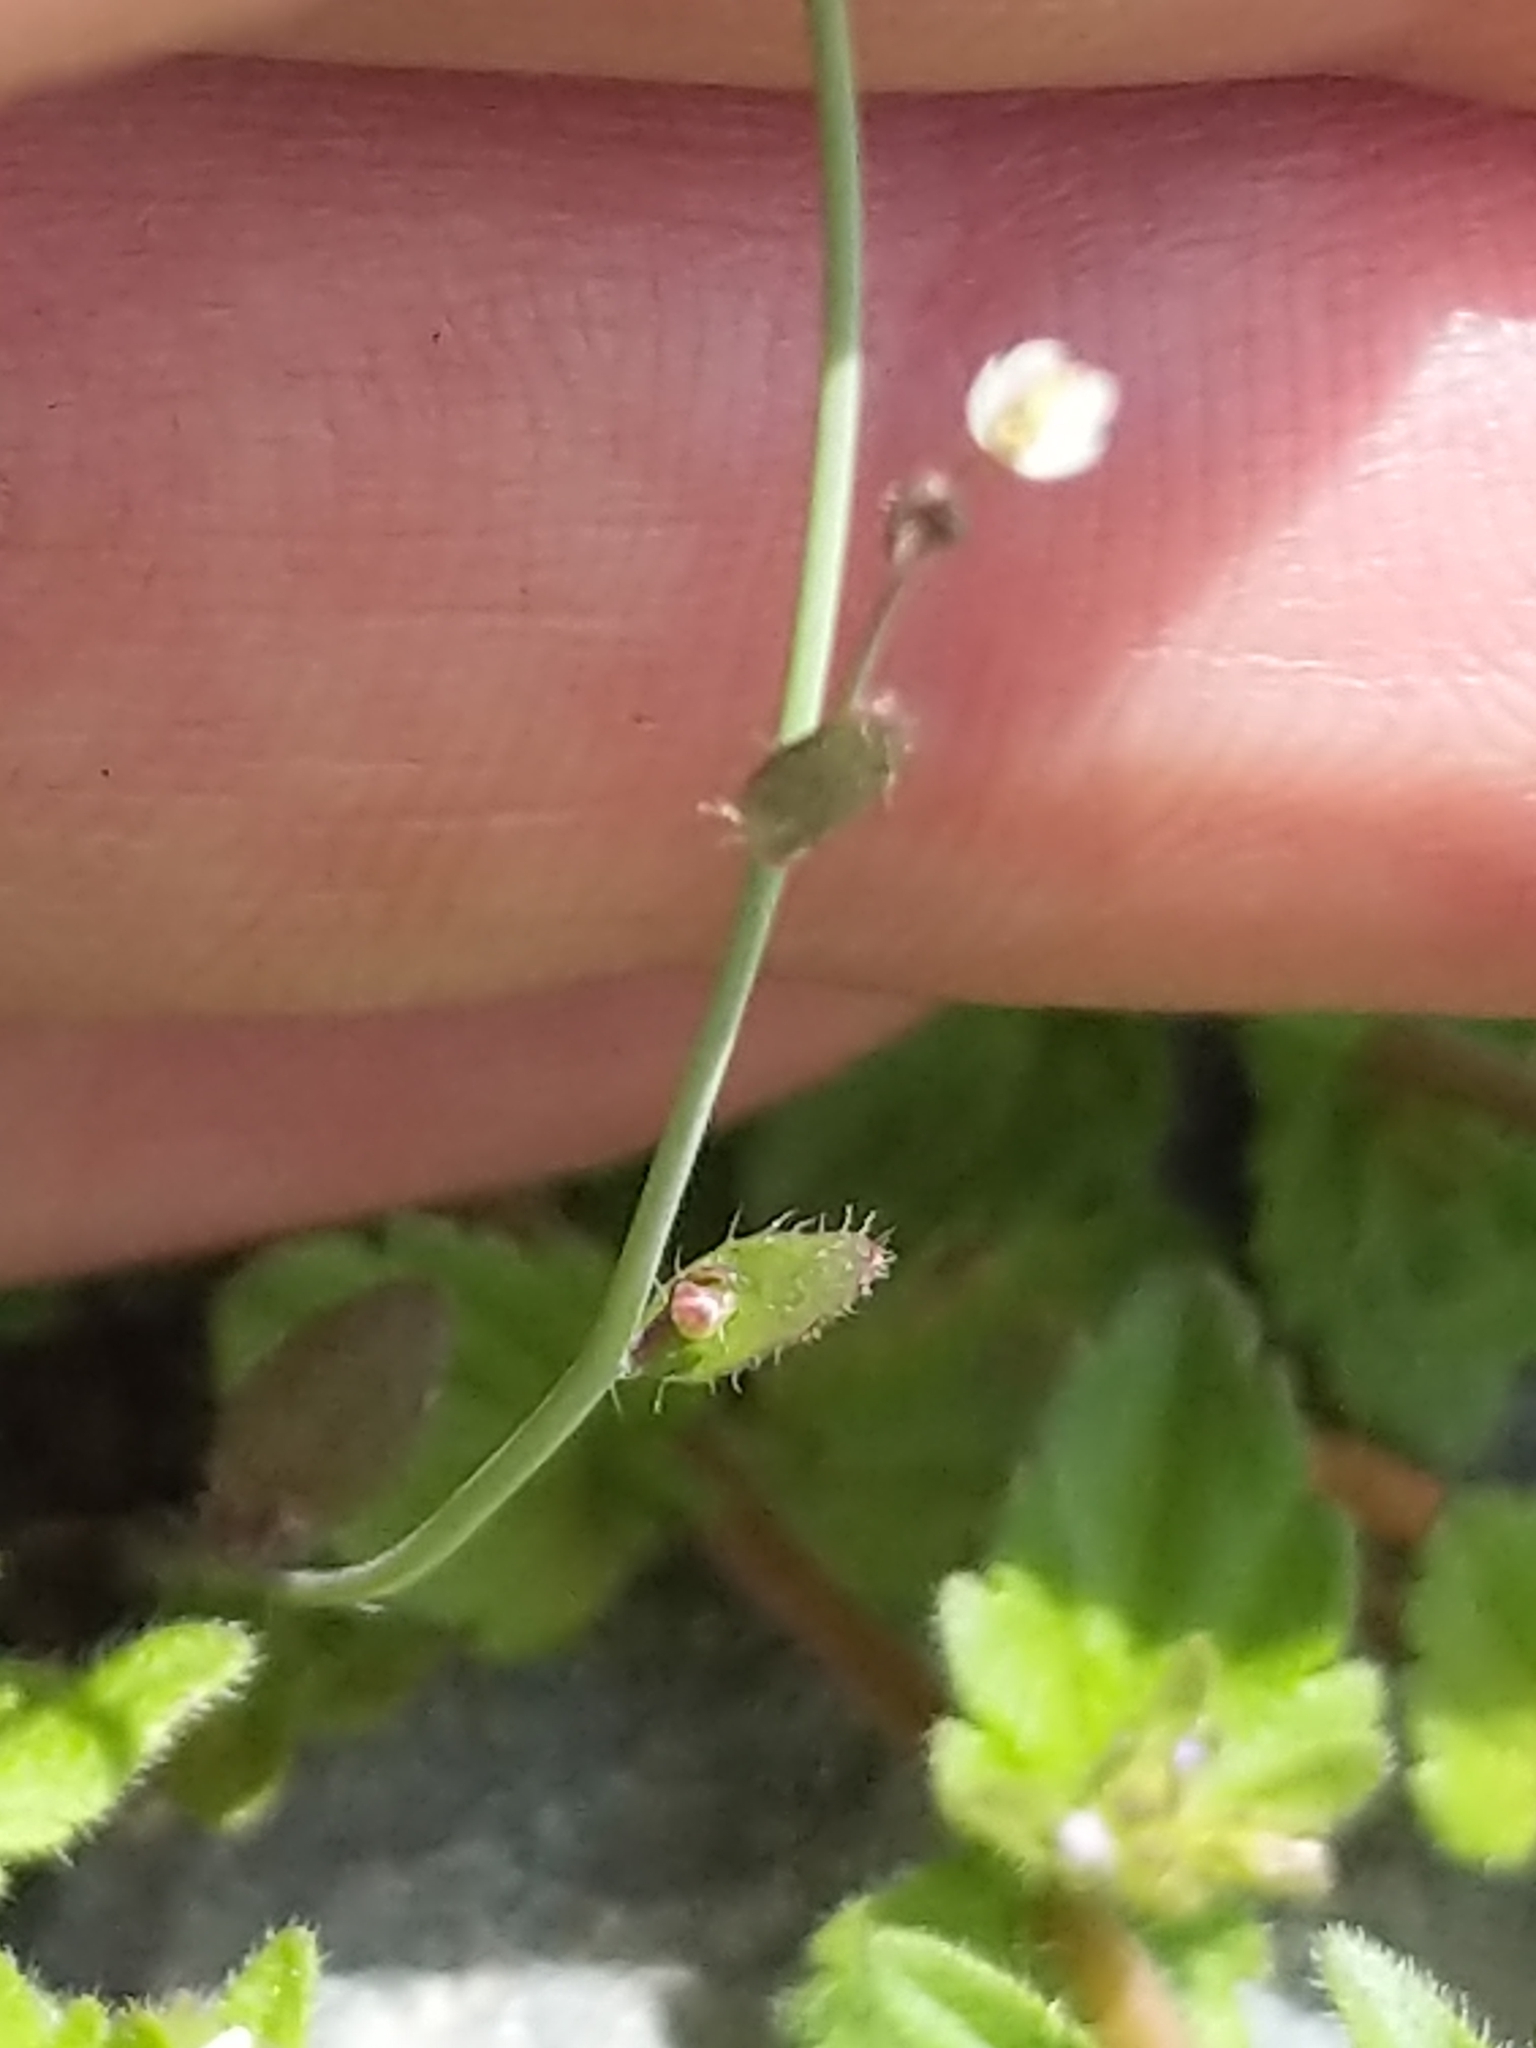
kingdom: Plantae
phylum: Tracheophyta
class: Magnoliopsida
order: Brassicales
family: Brassicaceae
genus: Arabidopsis
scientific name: Arabidopsis thaliana
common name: Thale cress
